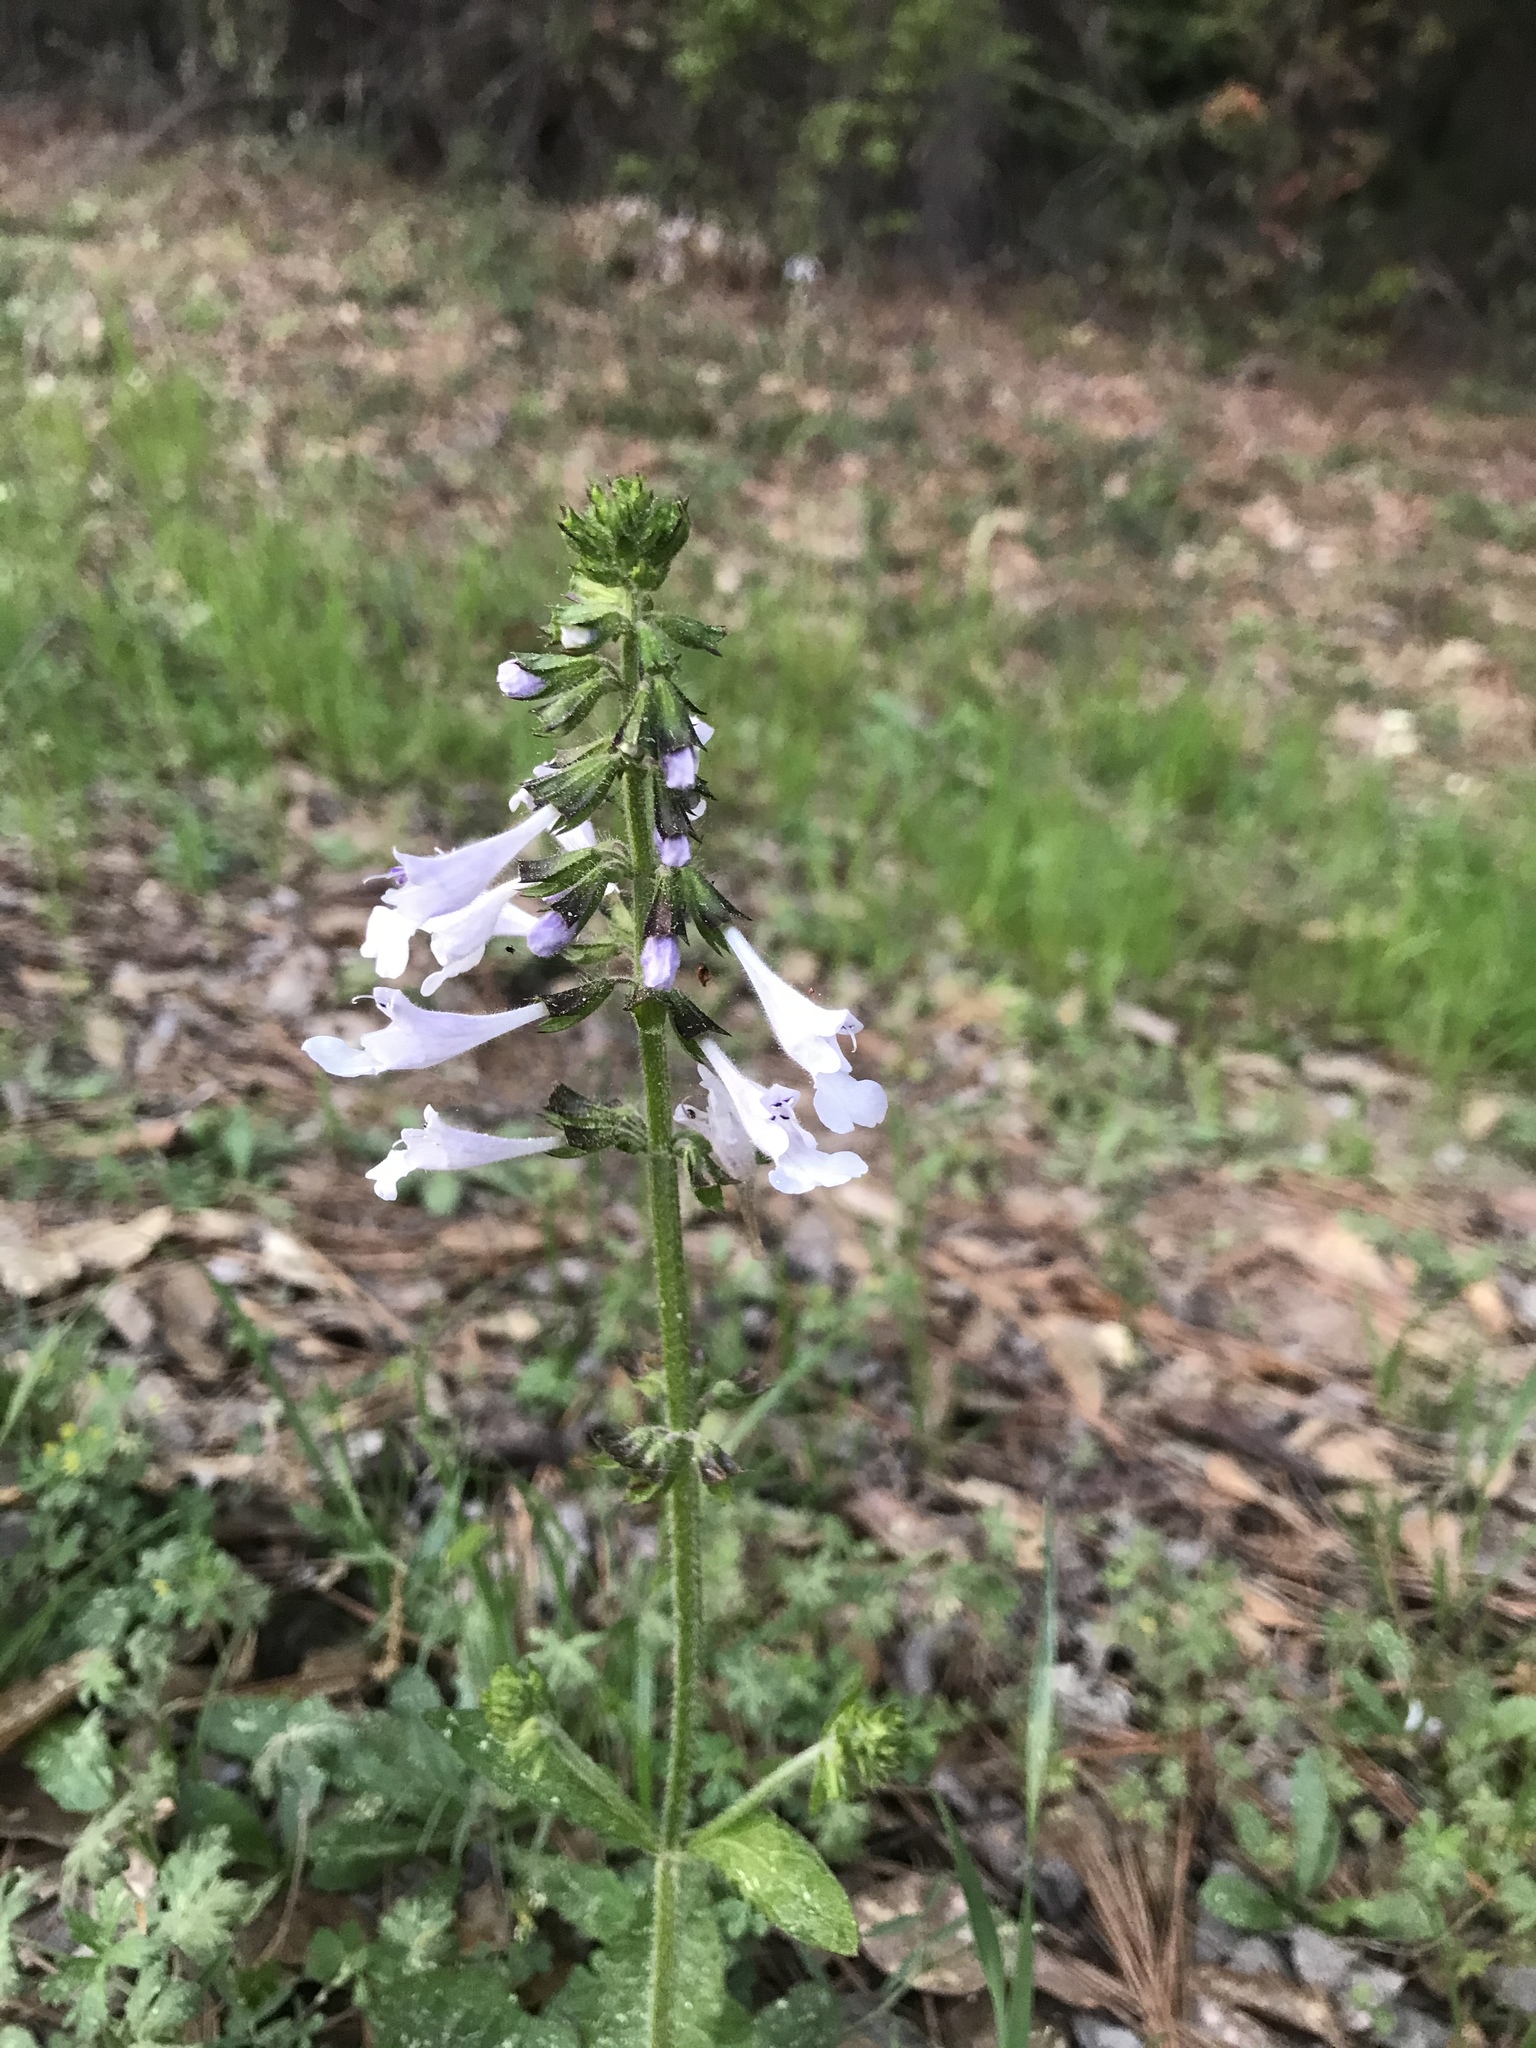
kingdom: Plantae
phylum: Tracheophyta
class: Magnoliopsida
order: Lamiales
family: Lamiaceae
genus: Salvia
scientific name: Salvia lyrata
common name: Cancerweed
